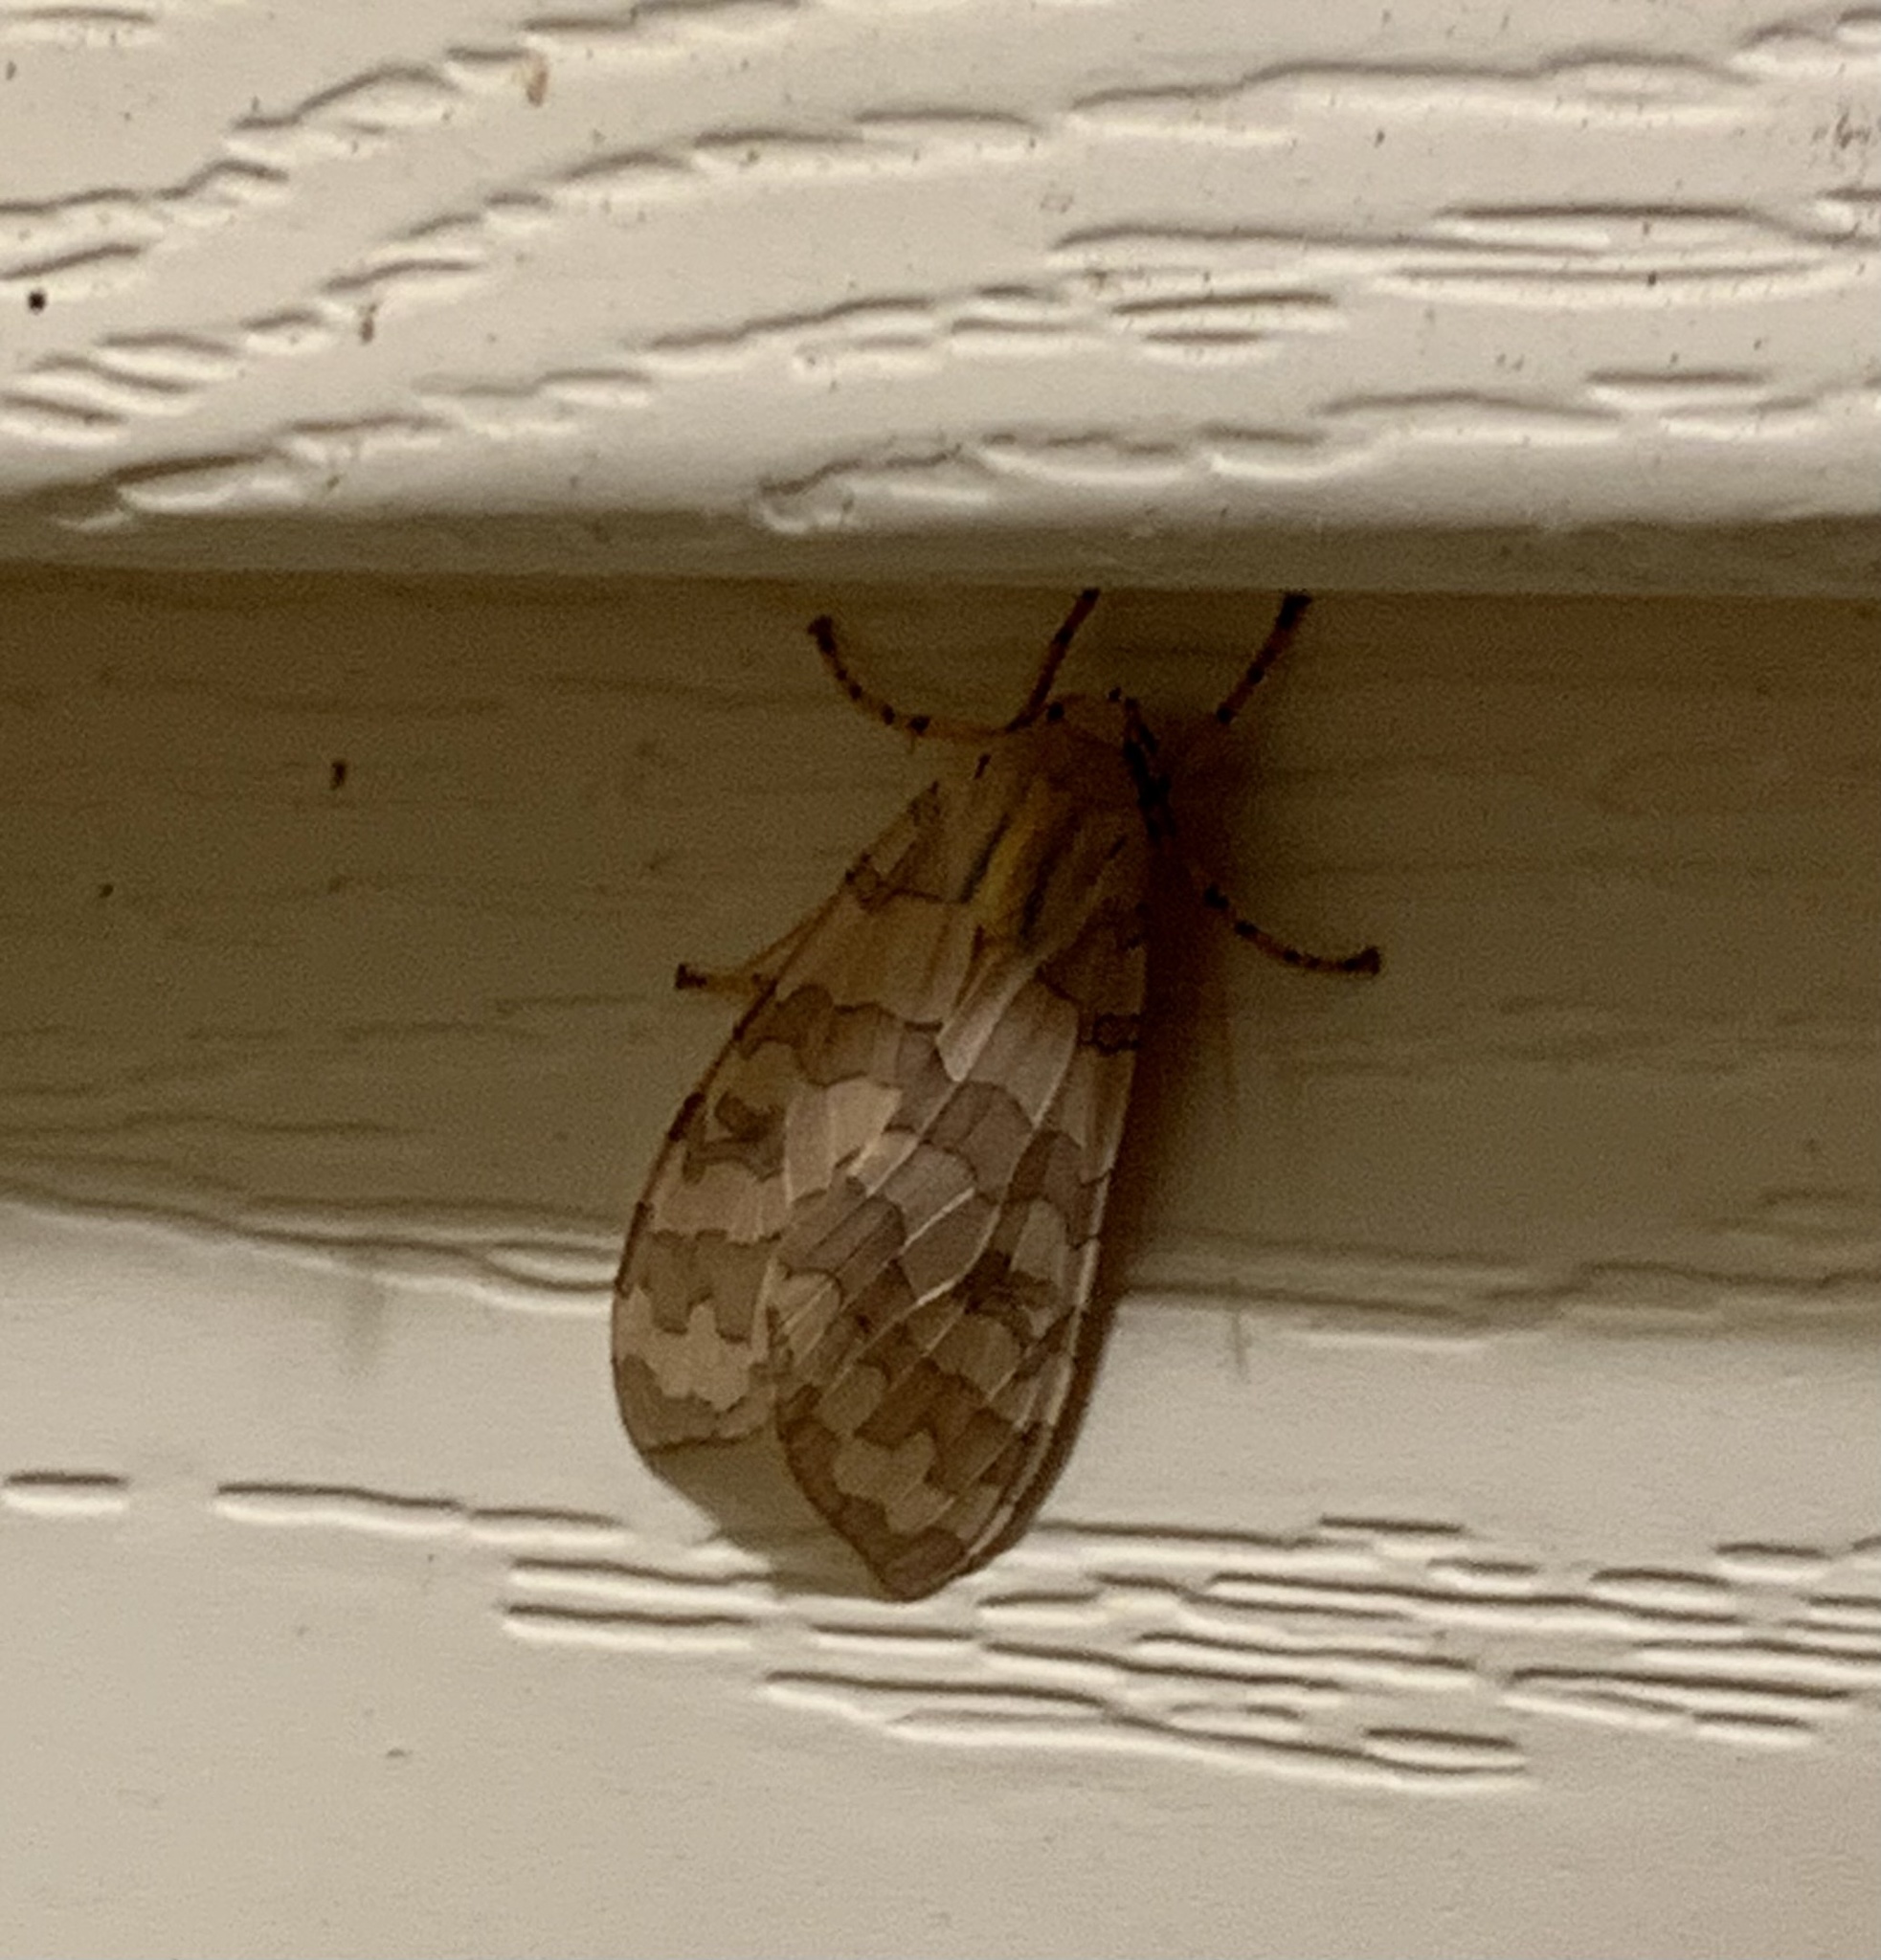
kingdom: Animalia
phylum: Arthropoda
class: Insecta
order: Lepidoptera
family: Erebidae
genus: Halysidota
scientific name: Halysidota
